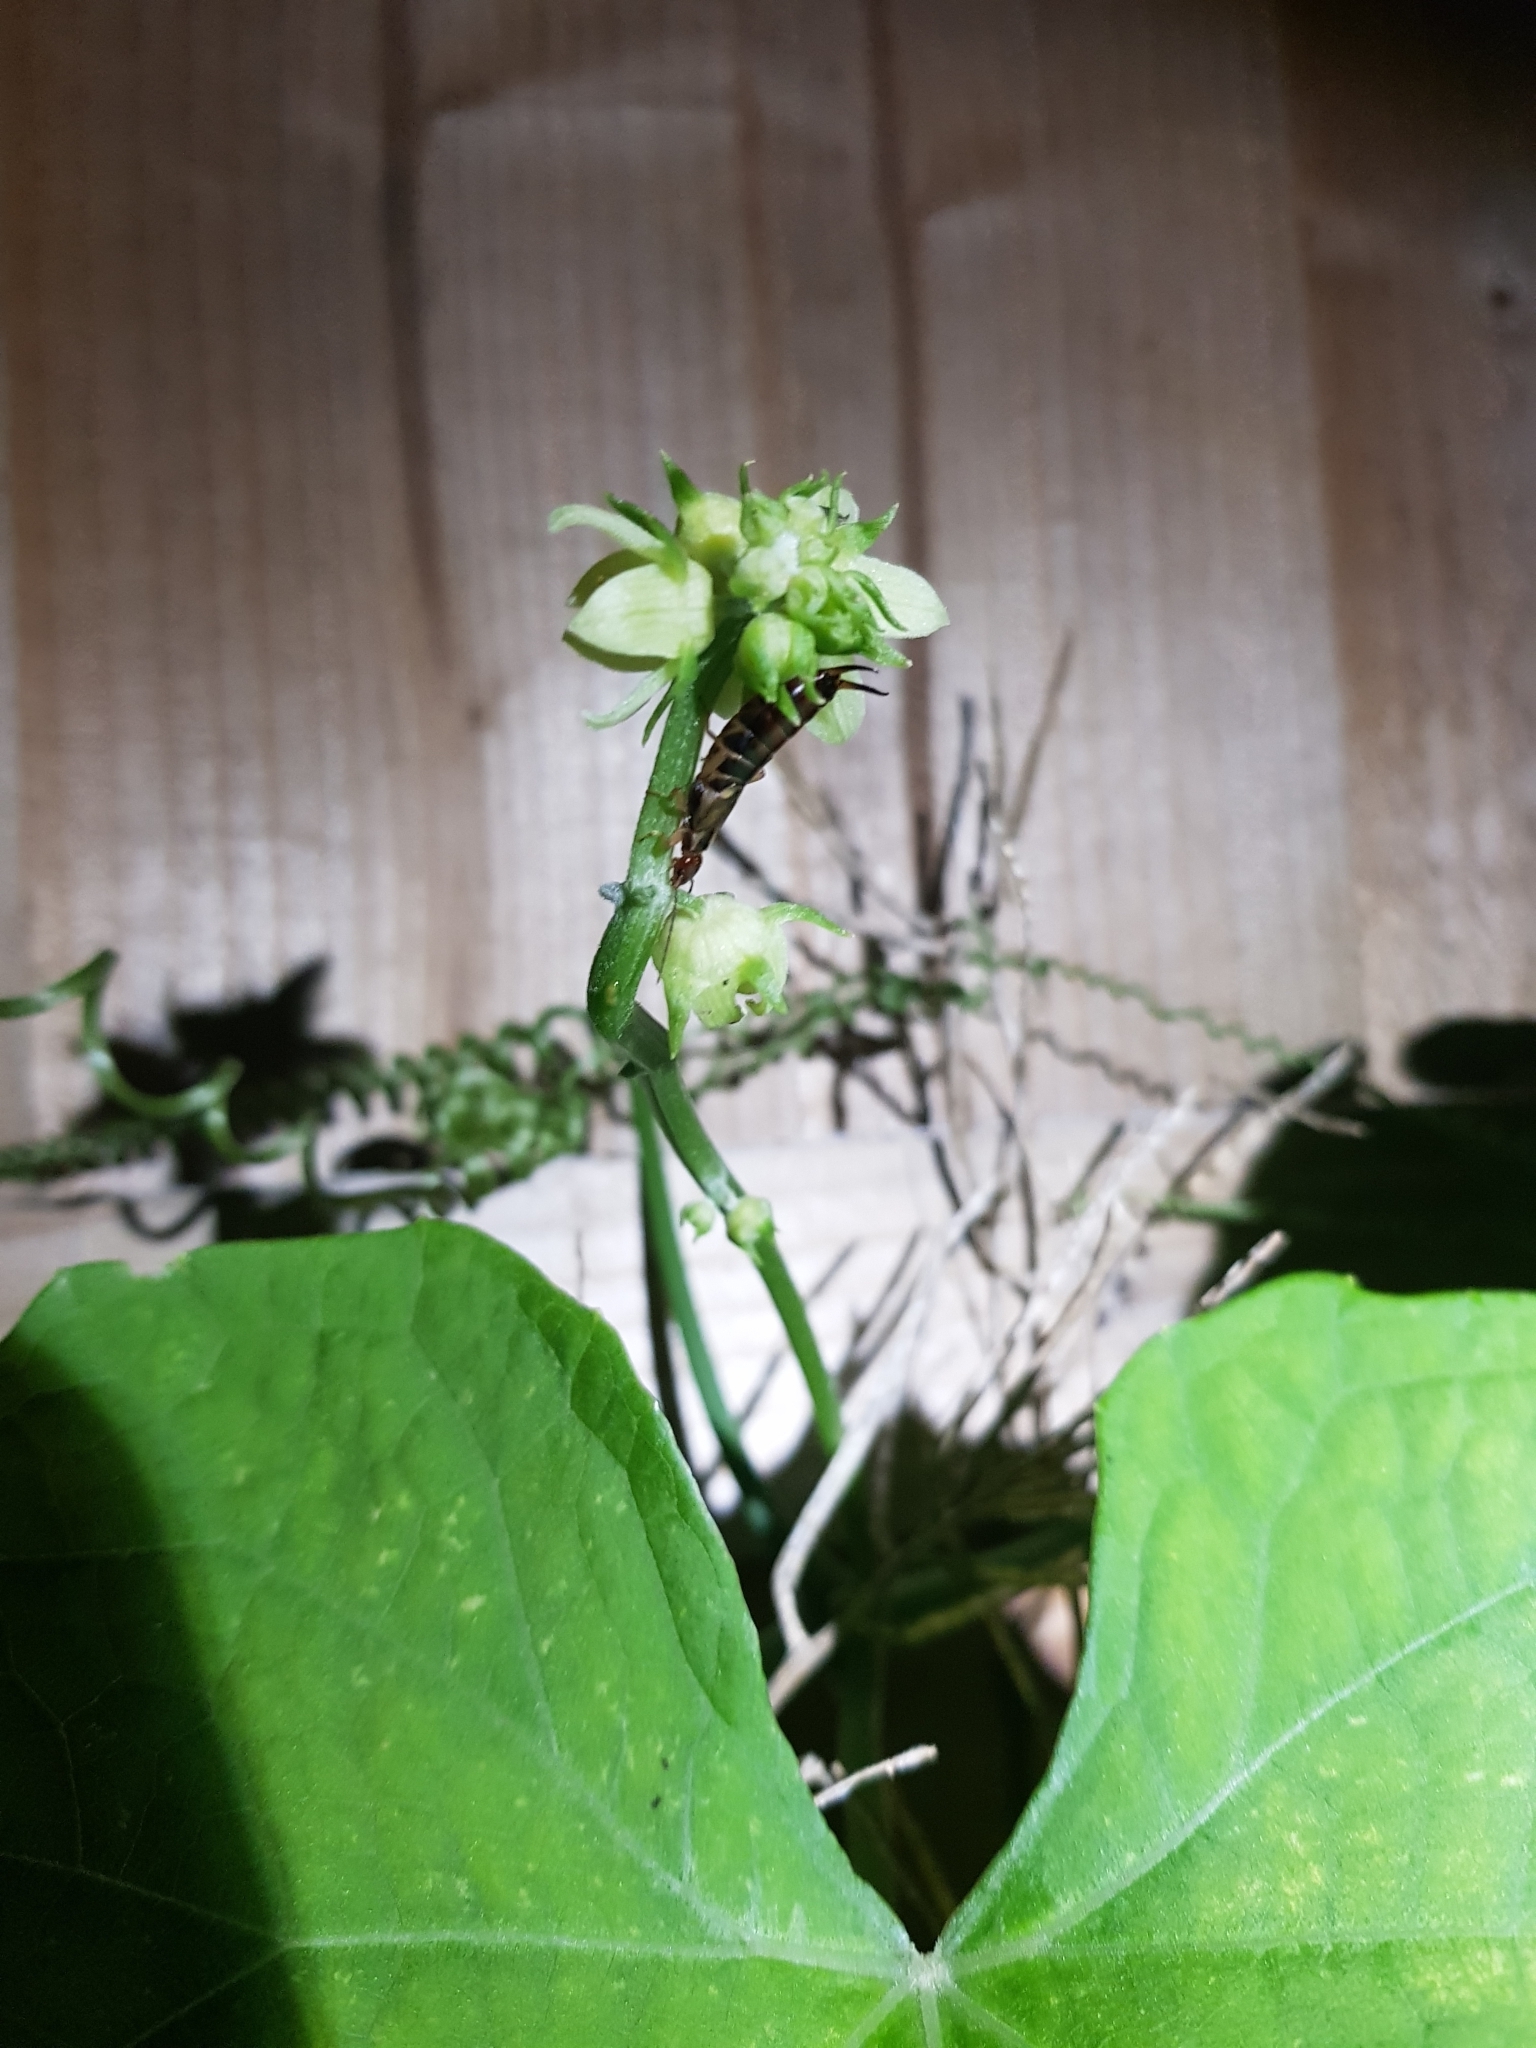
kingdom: Animalia
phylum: Arthropoda
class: Insecta
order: Dermaptera
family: Forficulidae
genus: Forficula
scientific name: Forficula
